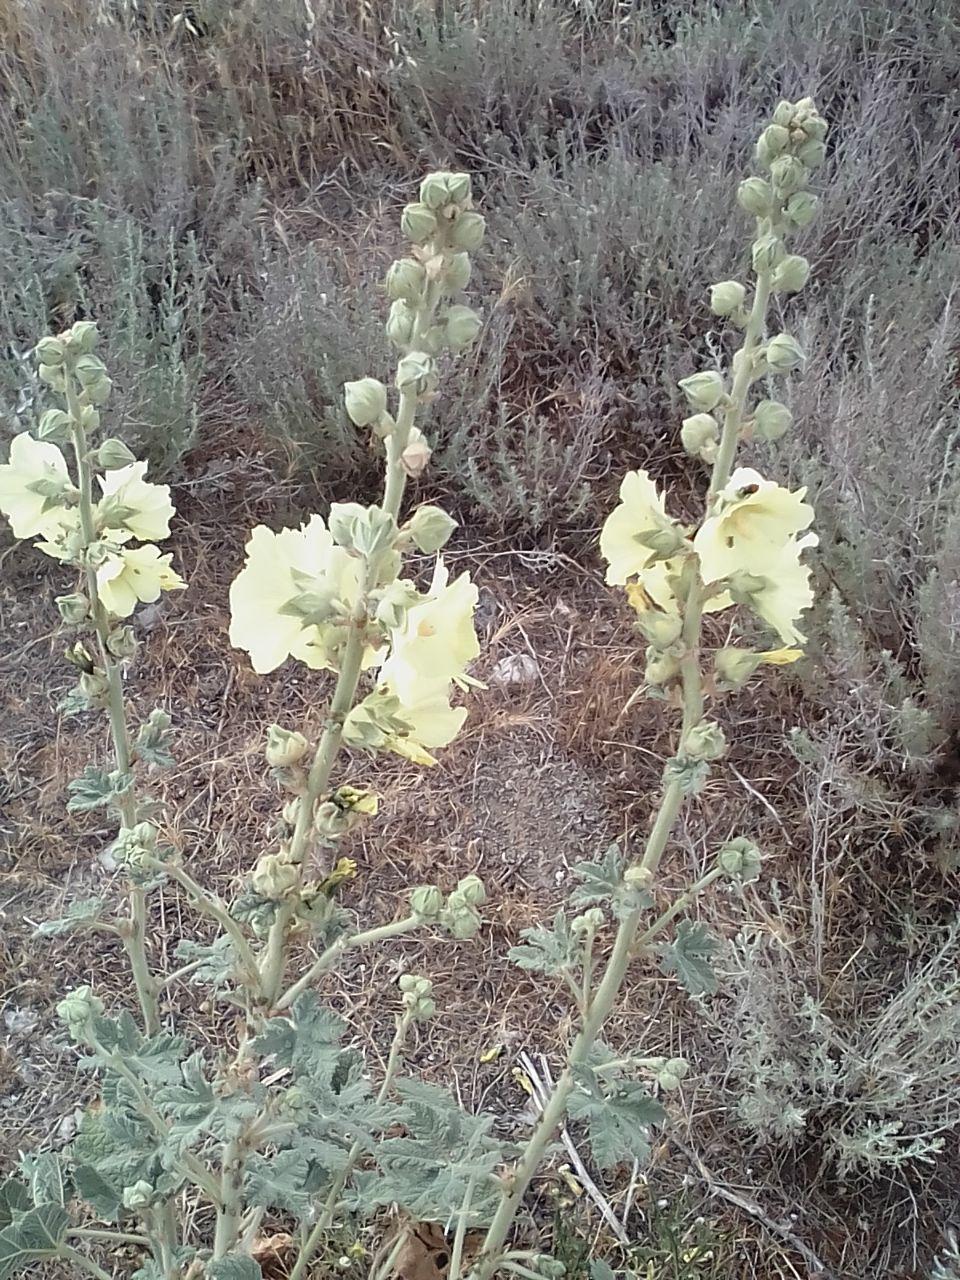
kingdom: Plantae
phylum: Tracheophyta
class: Magnoliopsida
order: Malvales
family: Malvaceae
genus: Alcea
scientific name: Alcea rugosa
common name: Russian hollyhock
